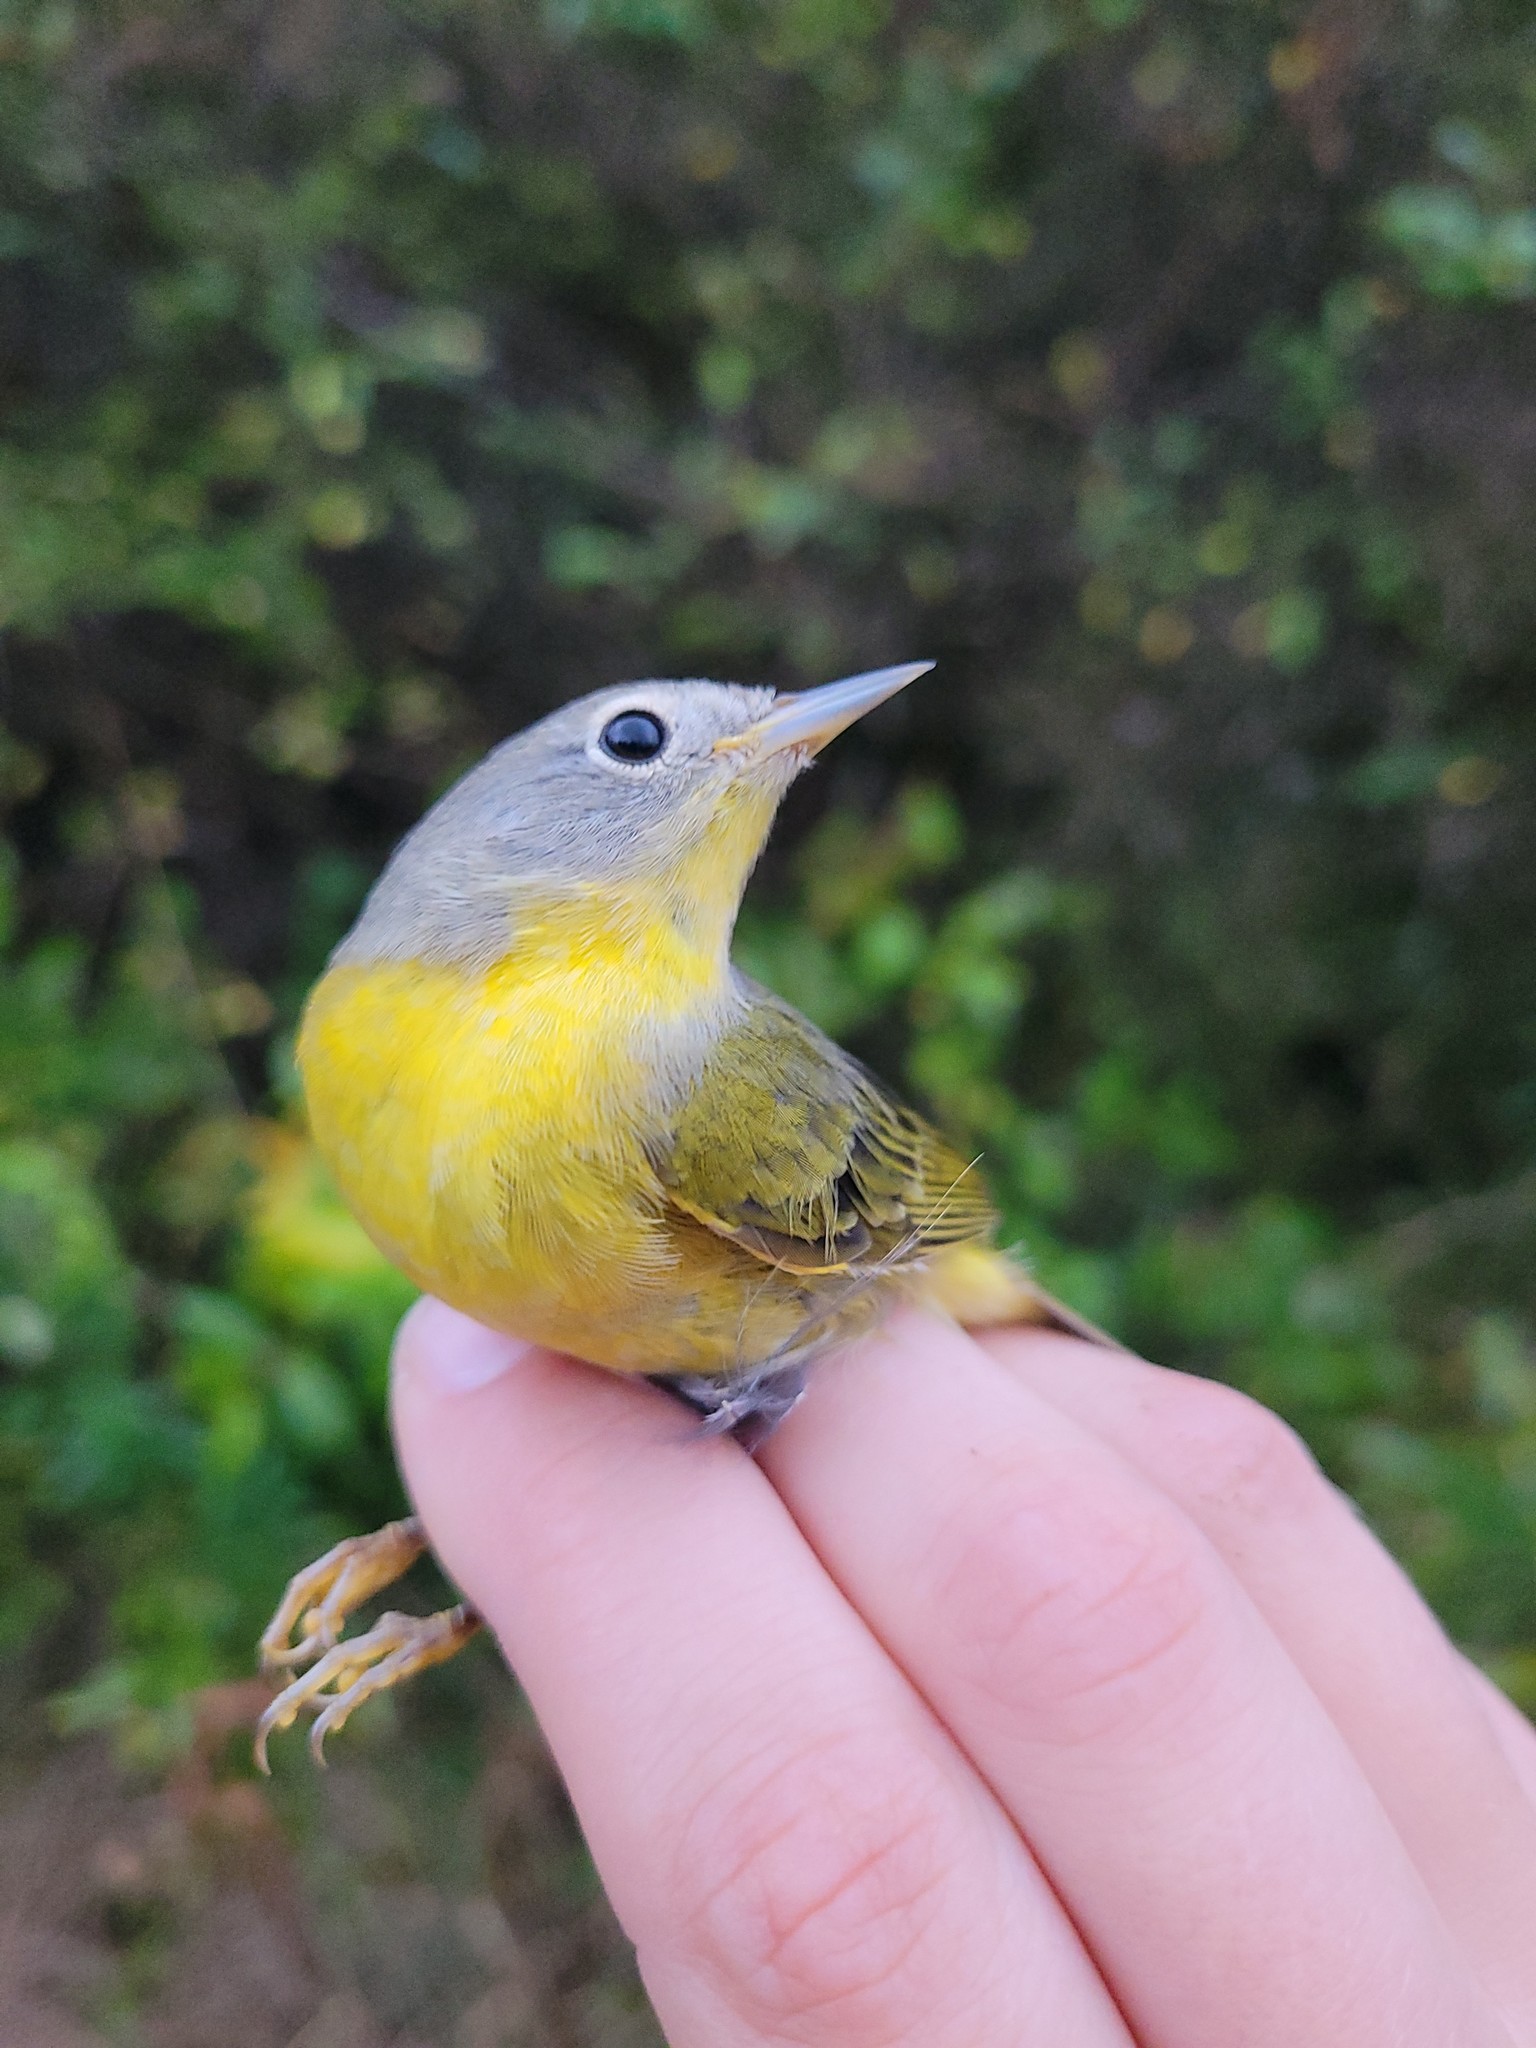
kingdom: Animalia
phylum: Chordata
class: Aves
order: Passeriformes
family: Parulidae
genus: Leiothlypis
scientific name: Leiothlypis ruficapilla
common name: Nashville warbler
